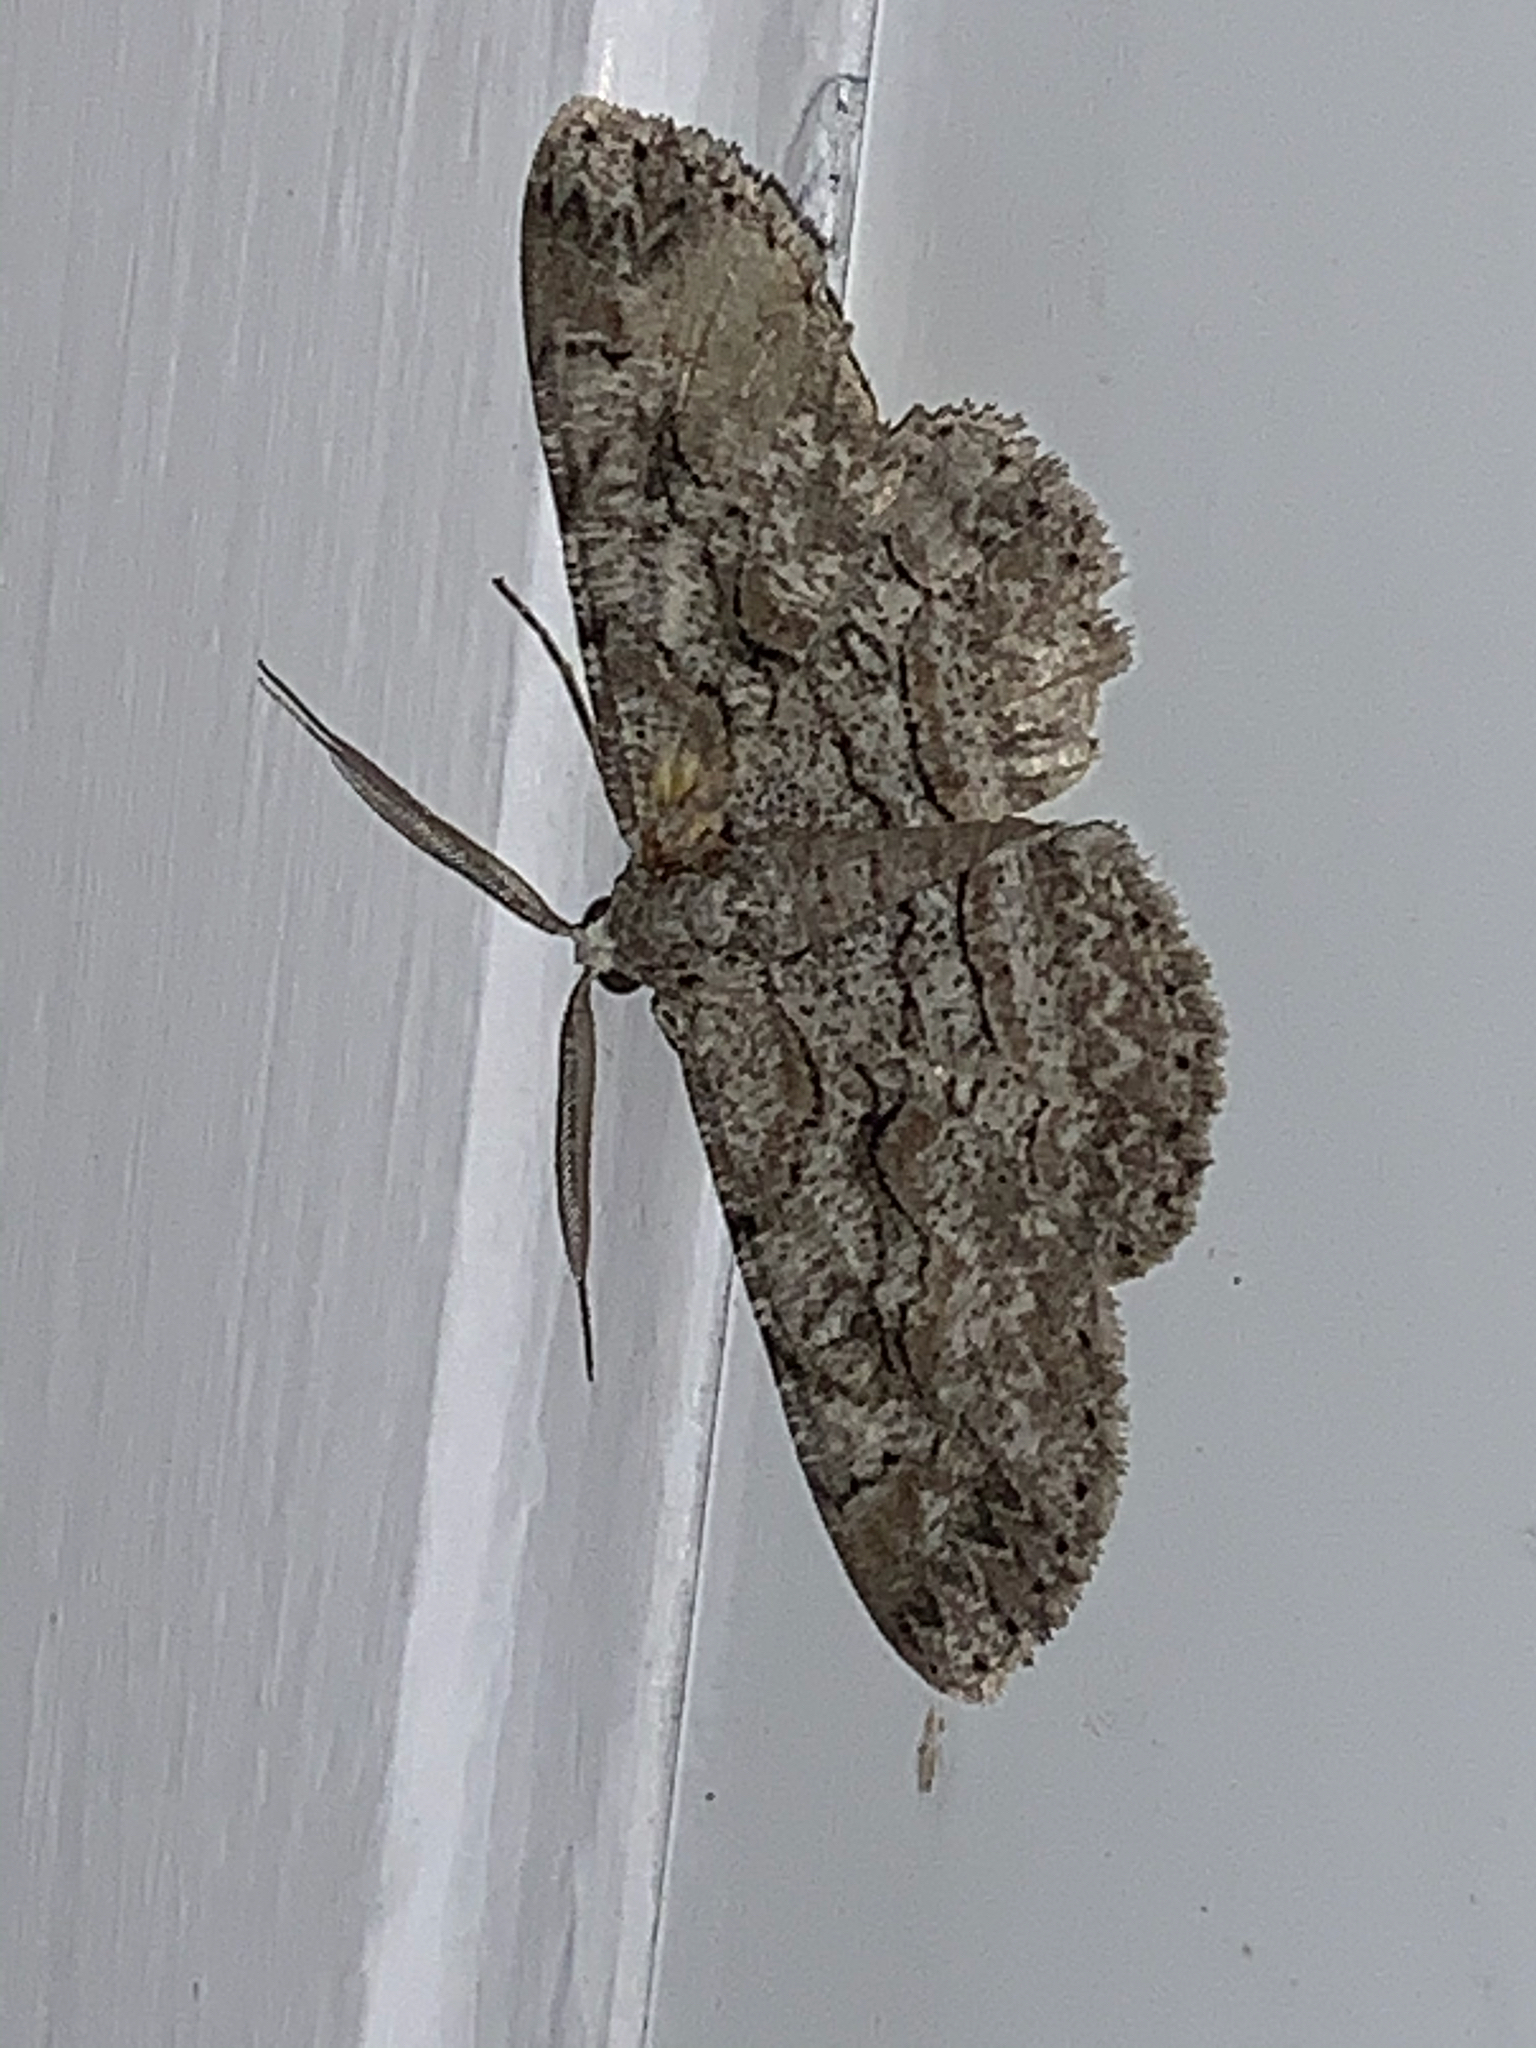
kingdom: Animalia
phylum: Arthropoda
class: Insecta
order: Lepidoptera
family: Geometridae
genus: Iridopsis
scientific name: Iridopsis defectaria
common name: Brown-shaded gray
